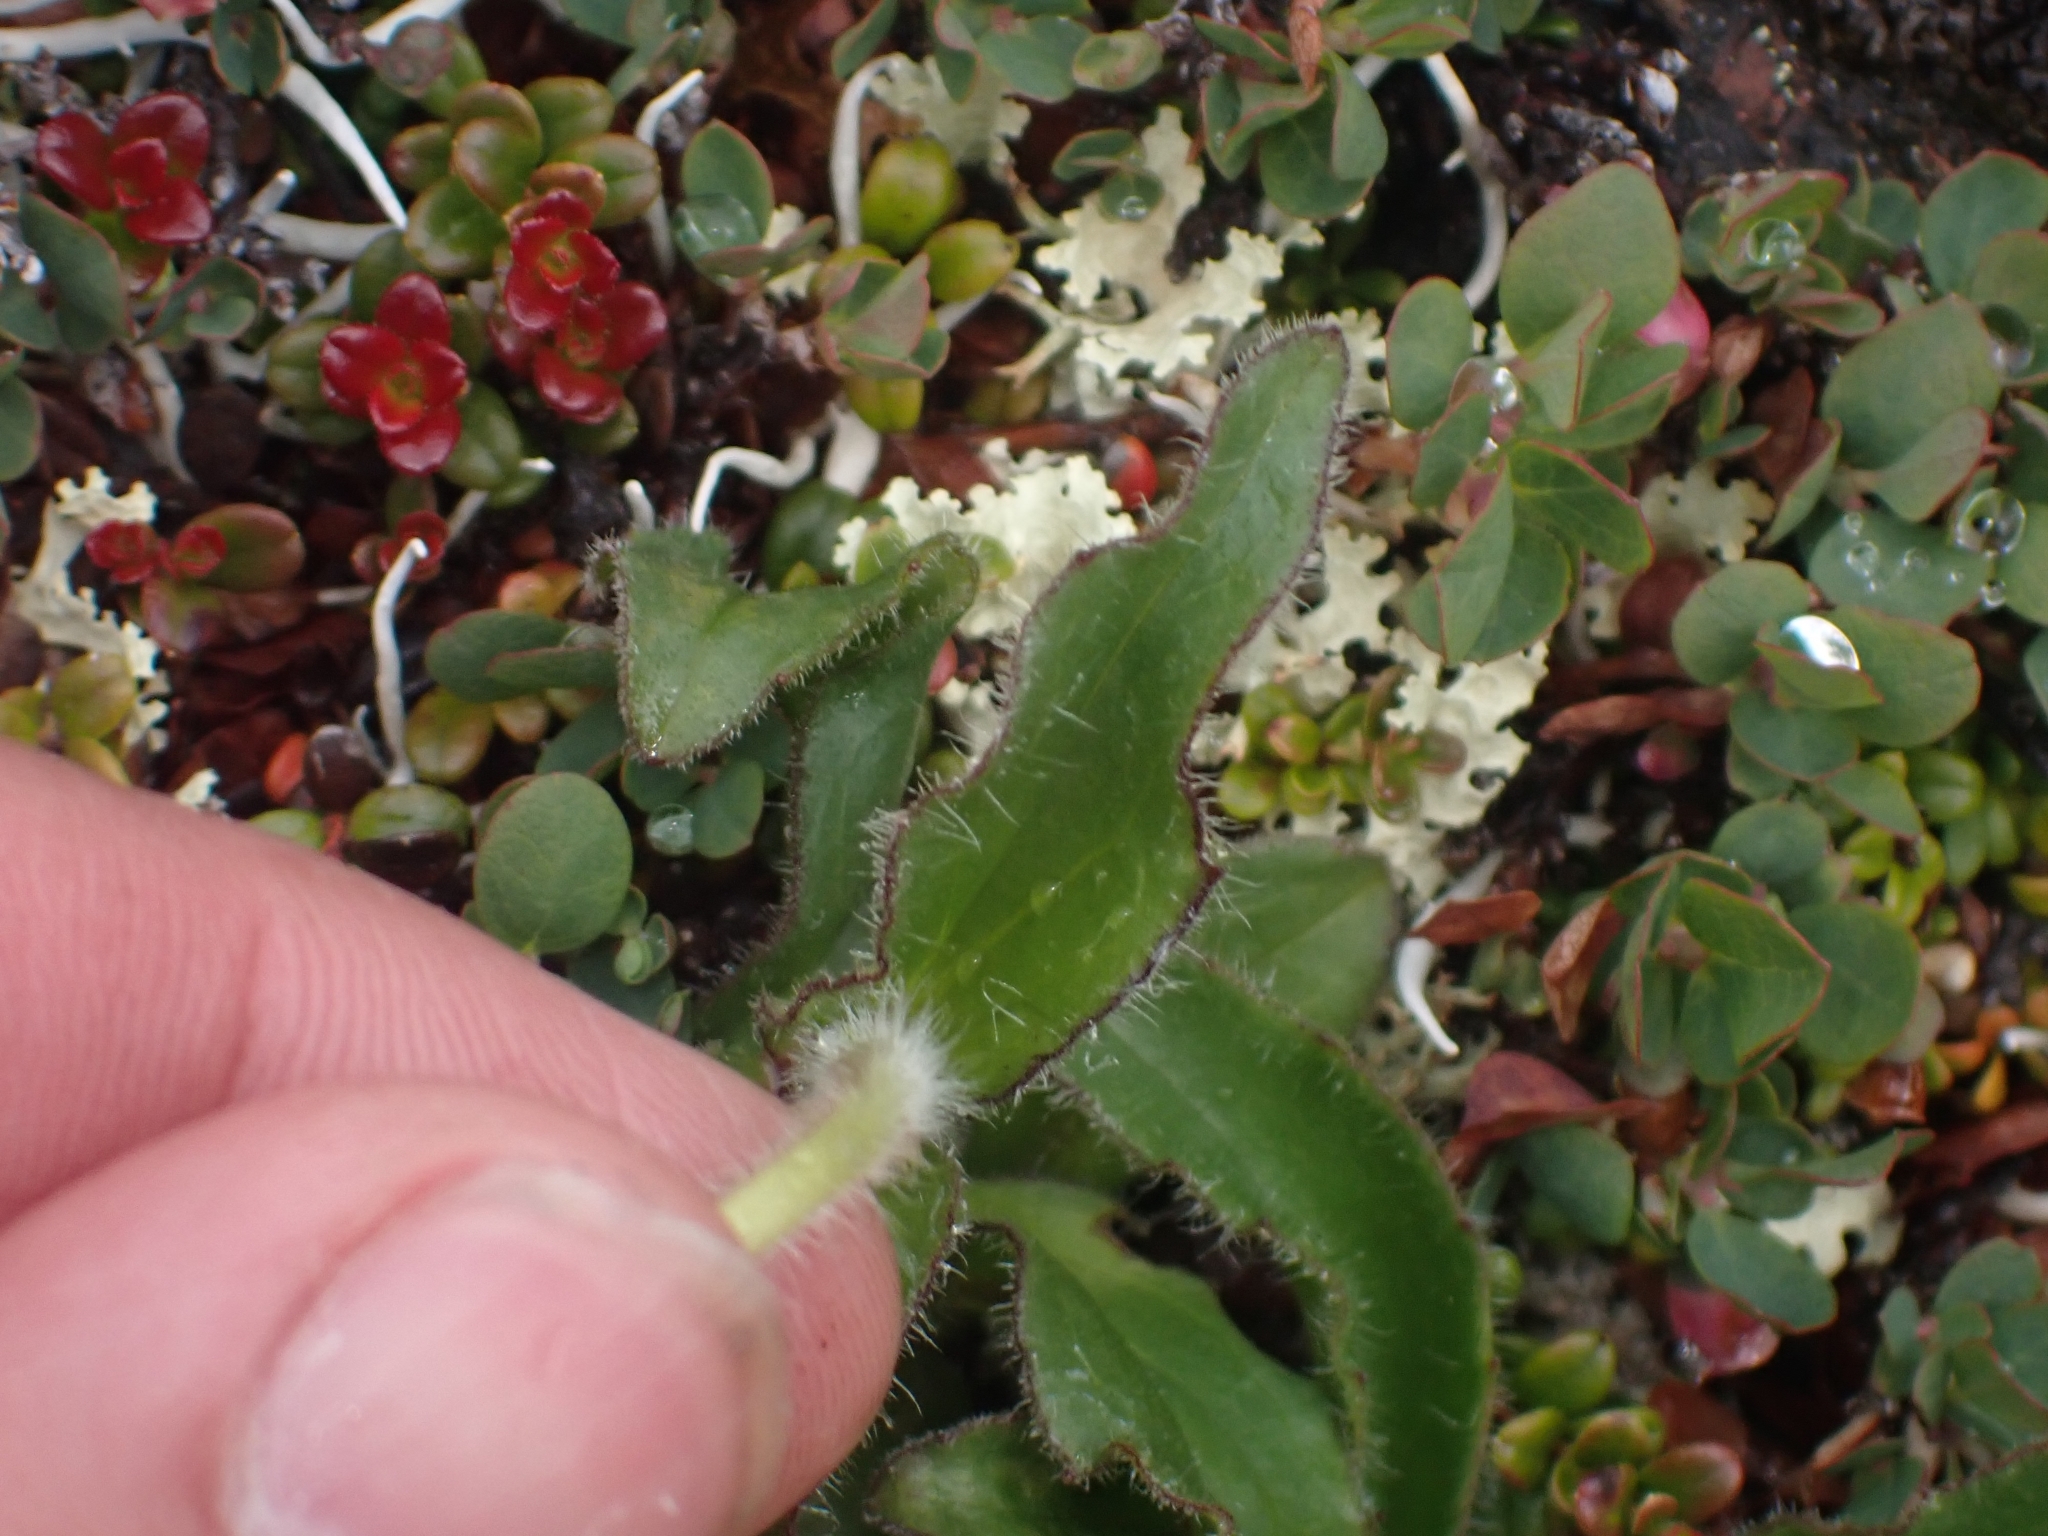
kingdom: Plantae
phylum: Tracheophyta
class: Magnoliopsida
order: Asterales
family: Asteraceae
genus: Arnica
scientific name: Arnica griscomii
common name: Snow arnica
